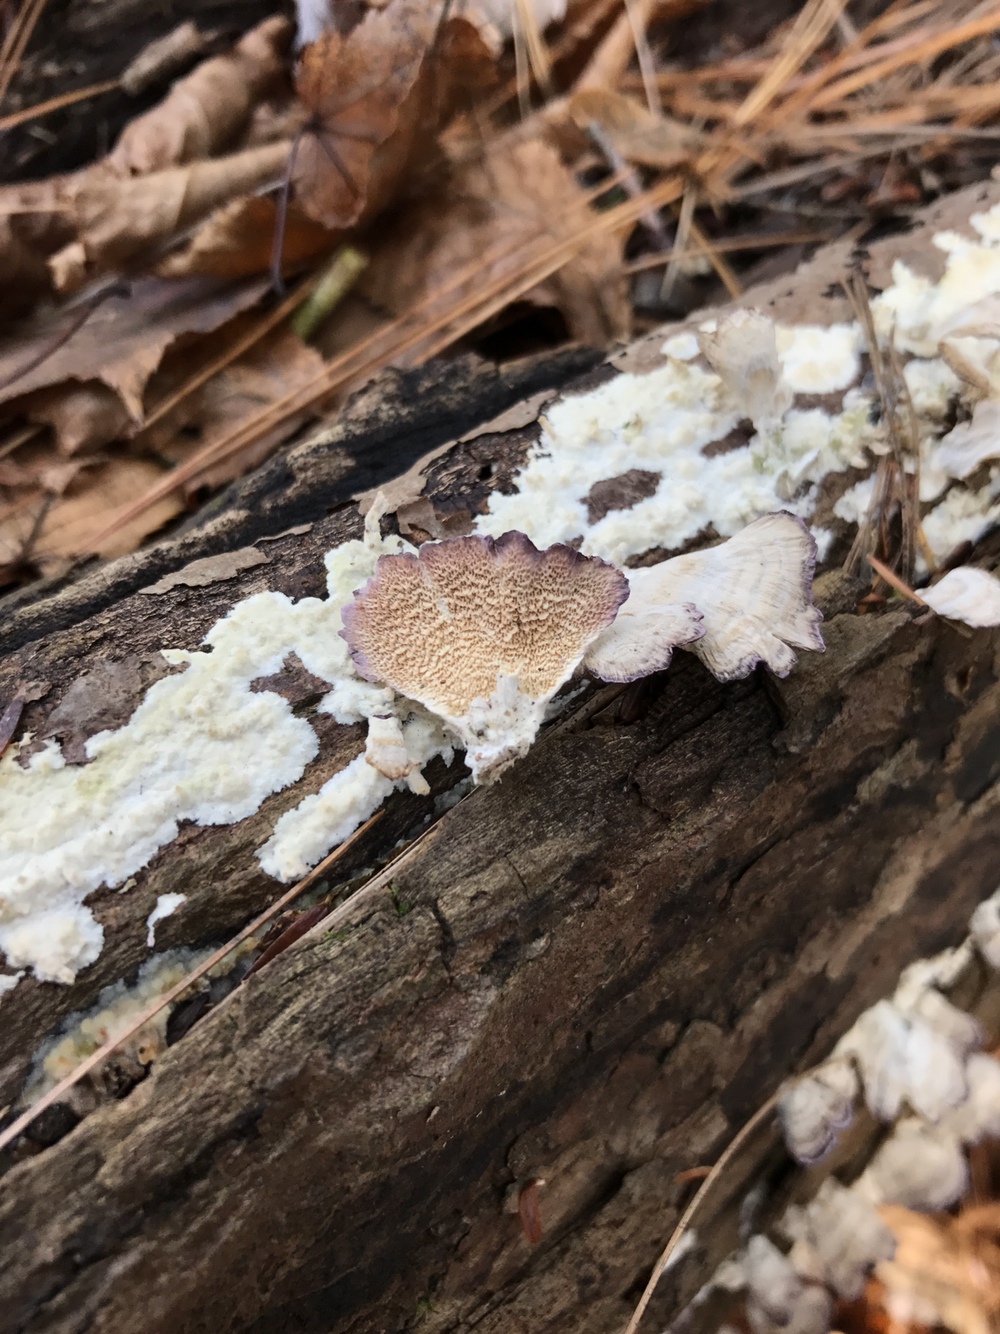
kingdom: Fungi
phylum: Basidiomycota
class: Agaricomycetes
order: Hymenochaetales
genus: Trichaptum
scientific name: Trichaptum biforme
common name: Violet-toothed polypore
